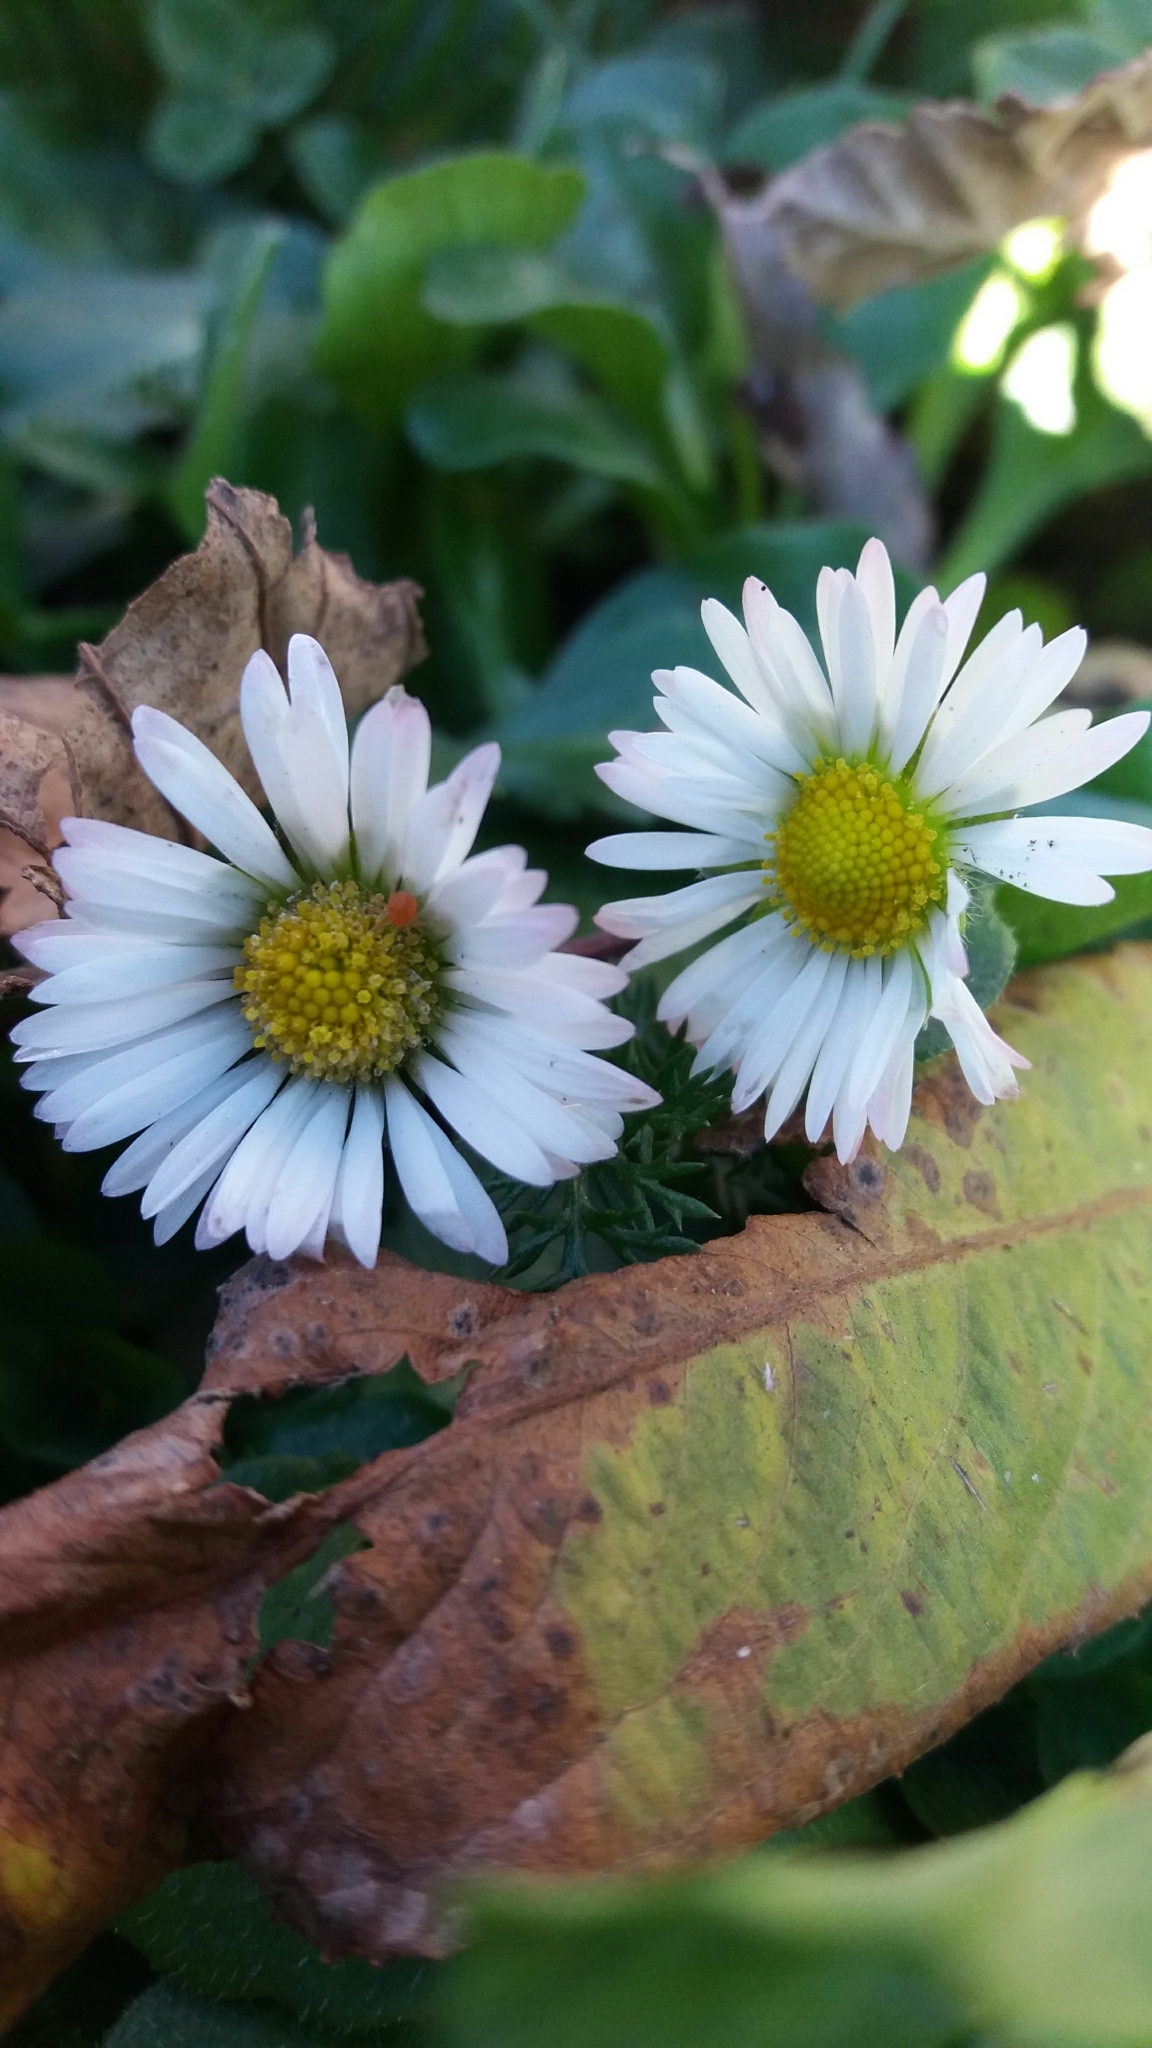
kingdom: Plantae
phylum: Tracheophyta
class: Magnoliopsida
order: Asterales
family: Asteraceae
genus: Bellis
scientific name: Bellis perennis
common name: Lawndaisy
